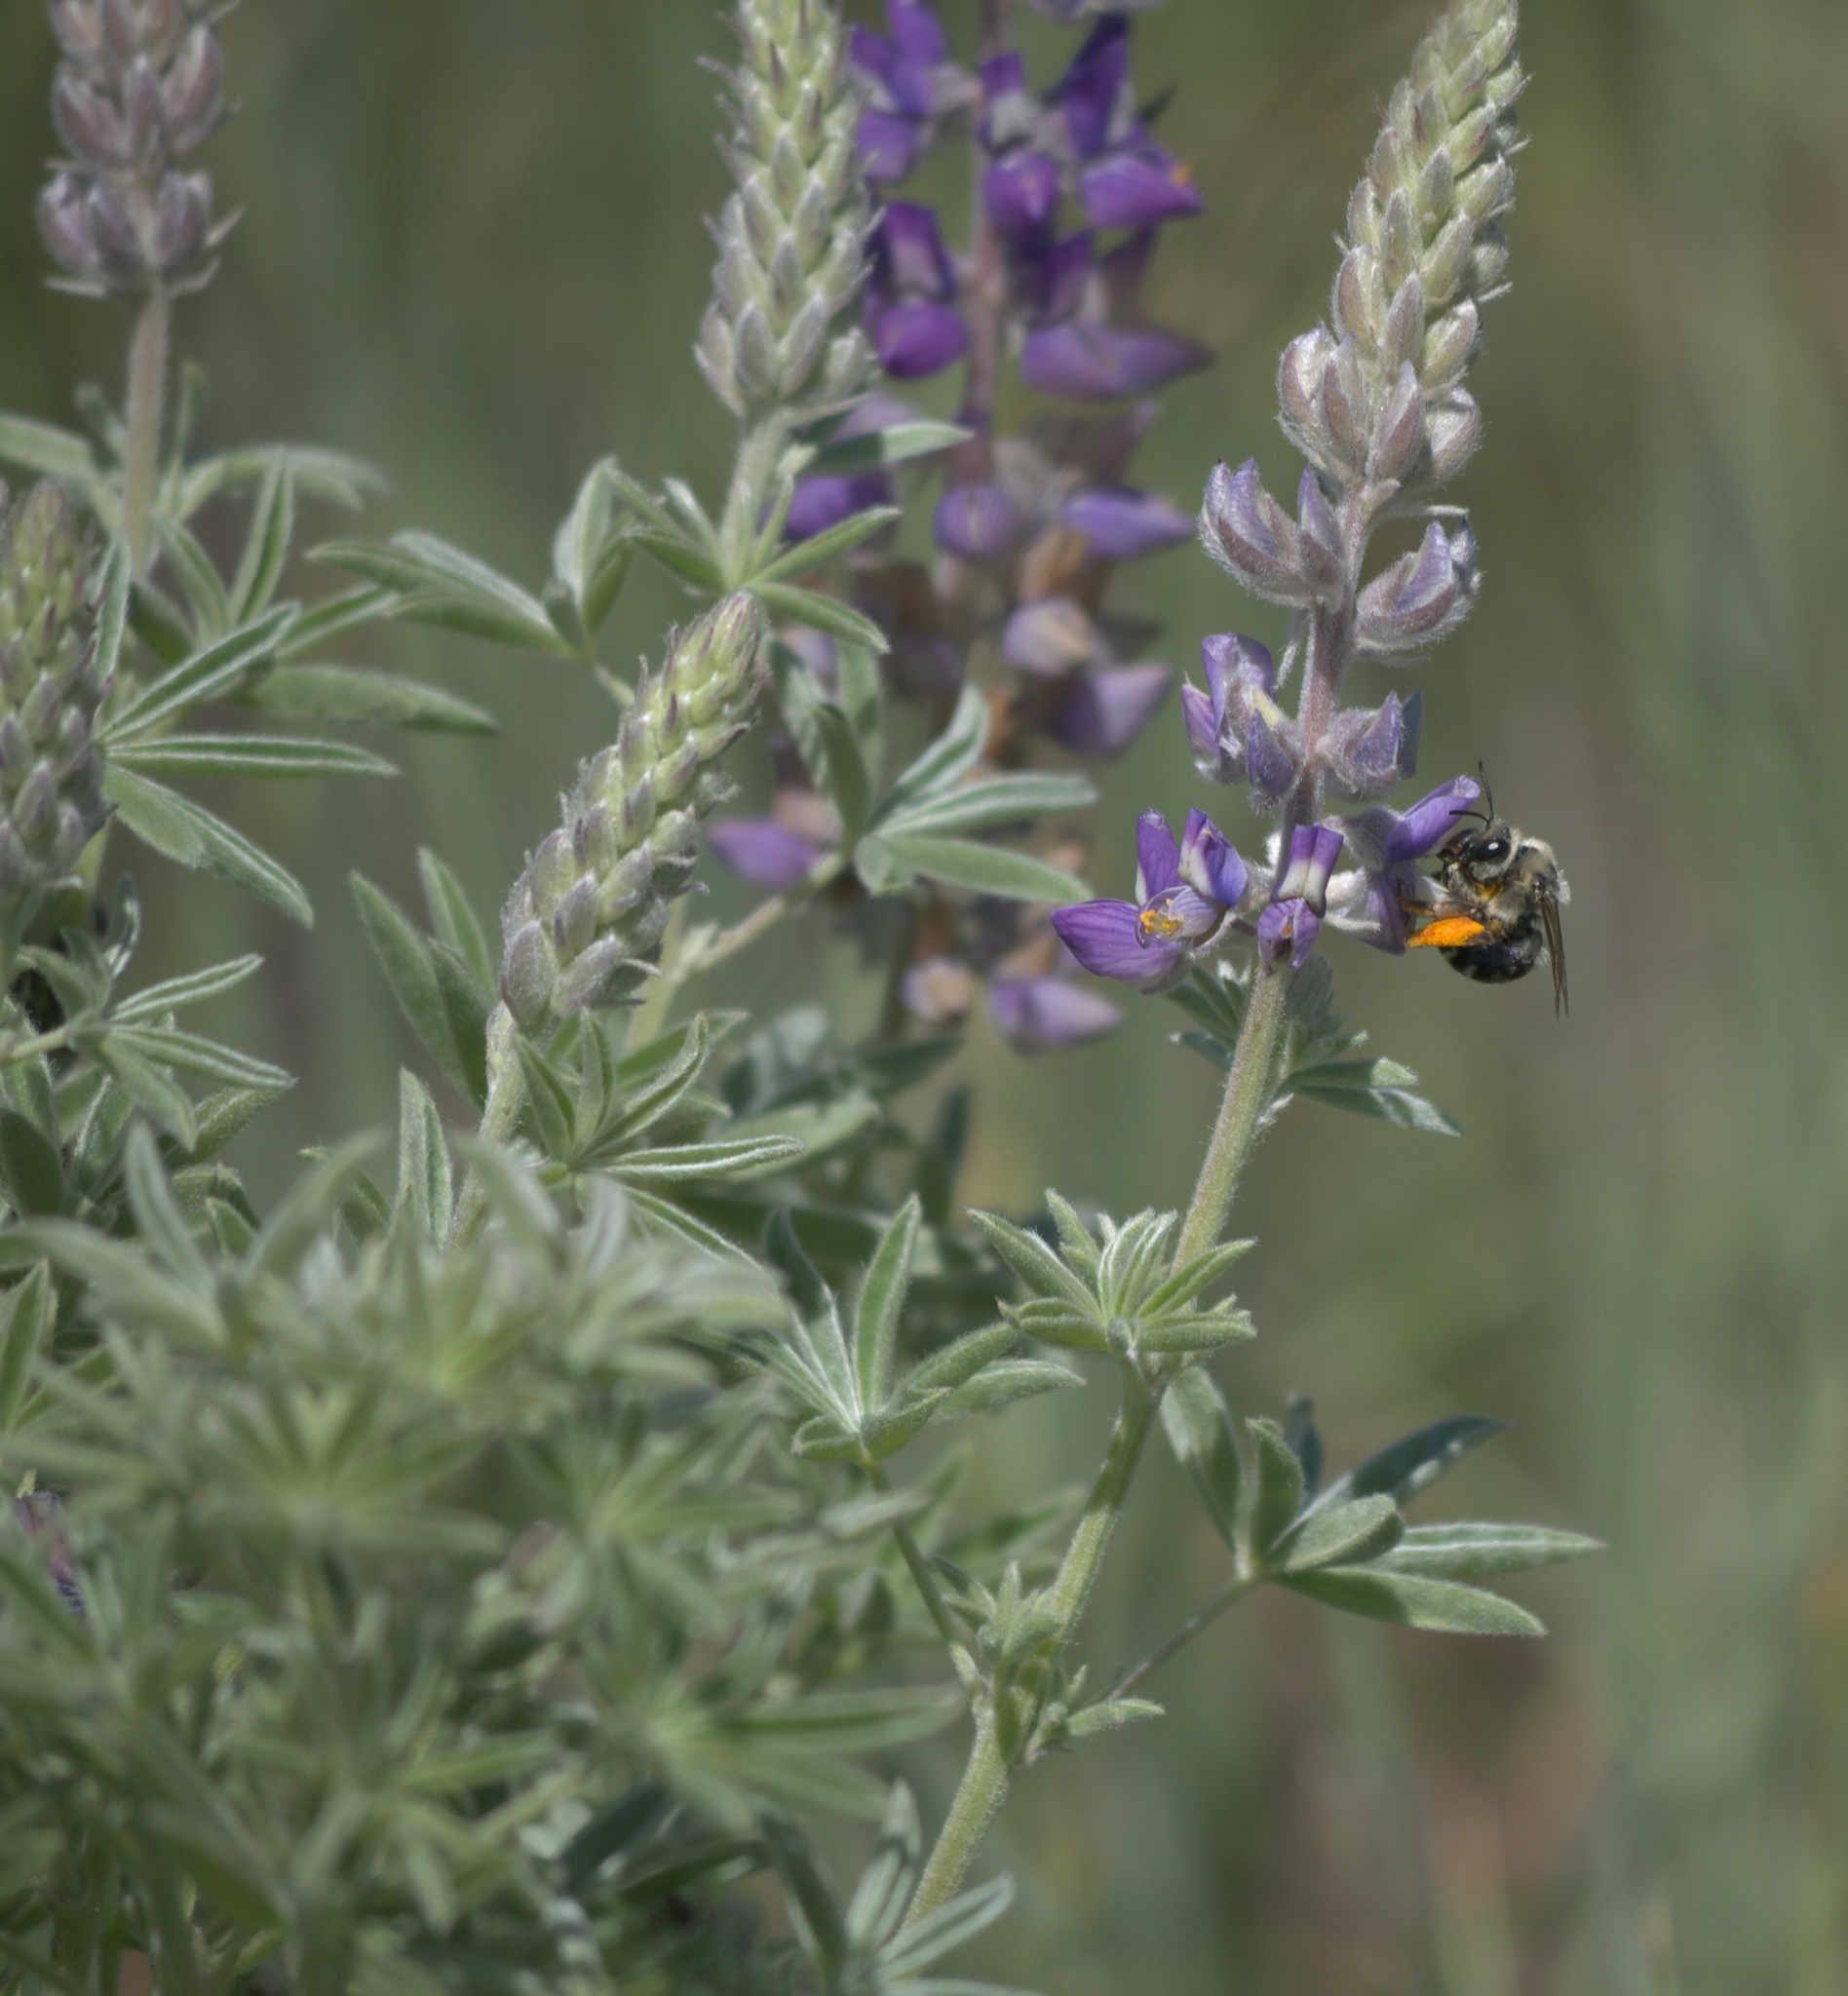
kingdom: Plantae
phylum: Tracheophyta
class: Magnoliopsida
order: Fabales
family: Fabaceae
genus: Lupinus
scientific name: Lupinus sericeus
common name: Silky lupine
